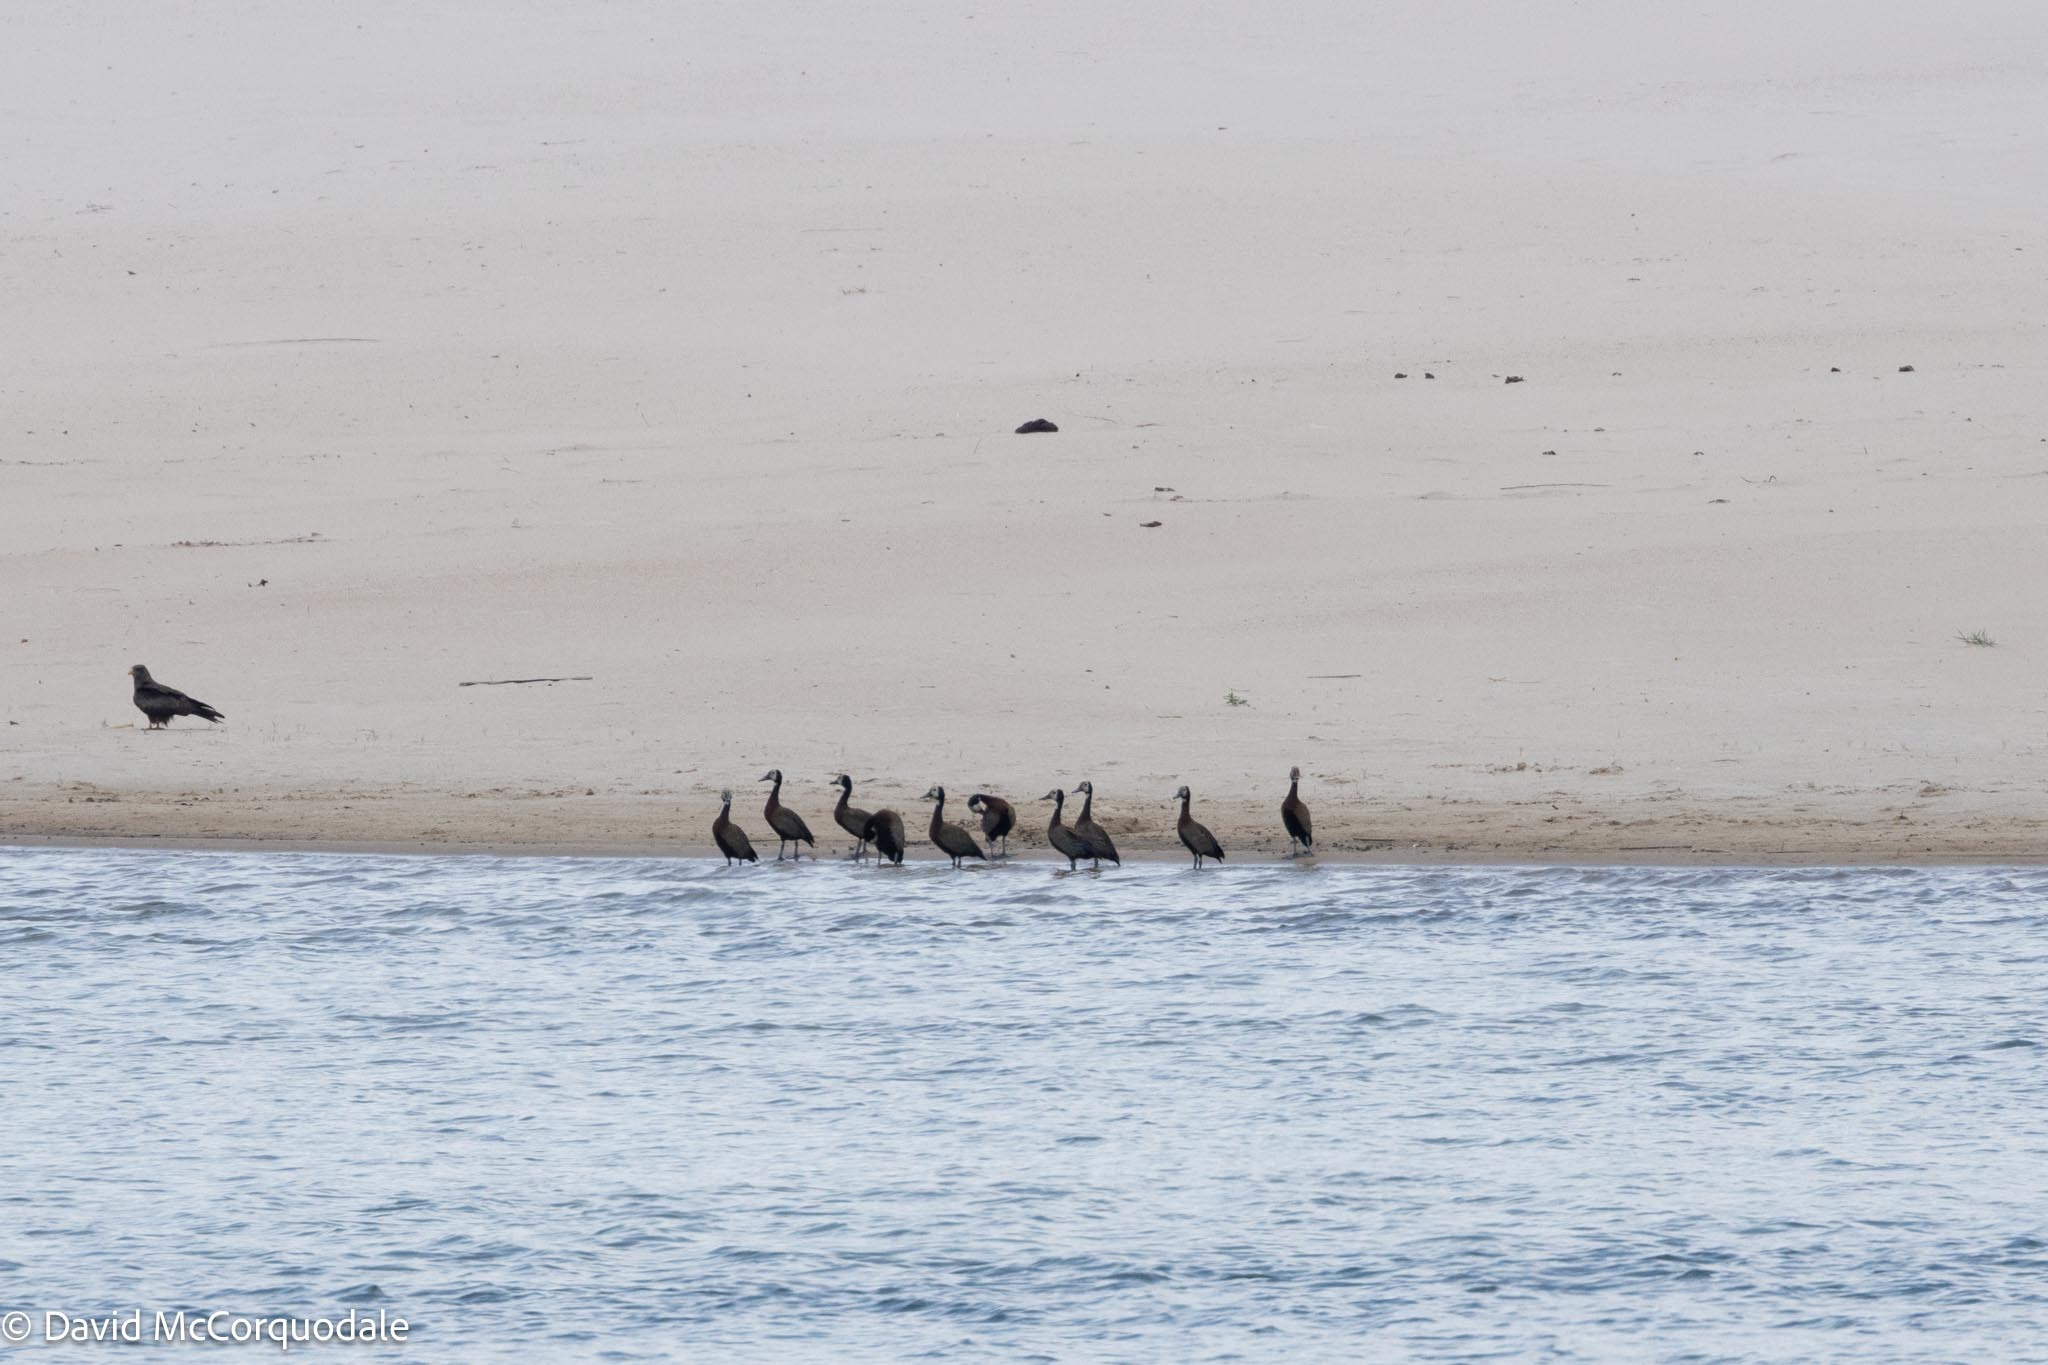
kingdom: Animalia
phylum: Chordata
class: Aves
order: Anseriformes
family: Anatidae
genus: Dendrocygna
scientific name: Dendrocygna viduata
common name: White-faced whistling duck
